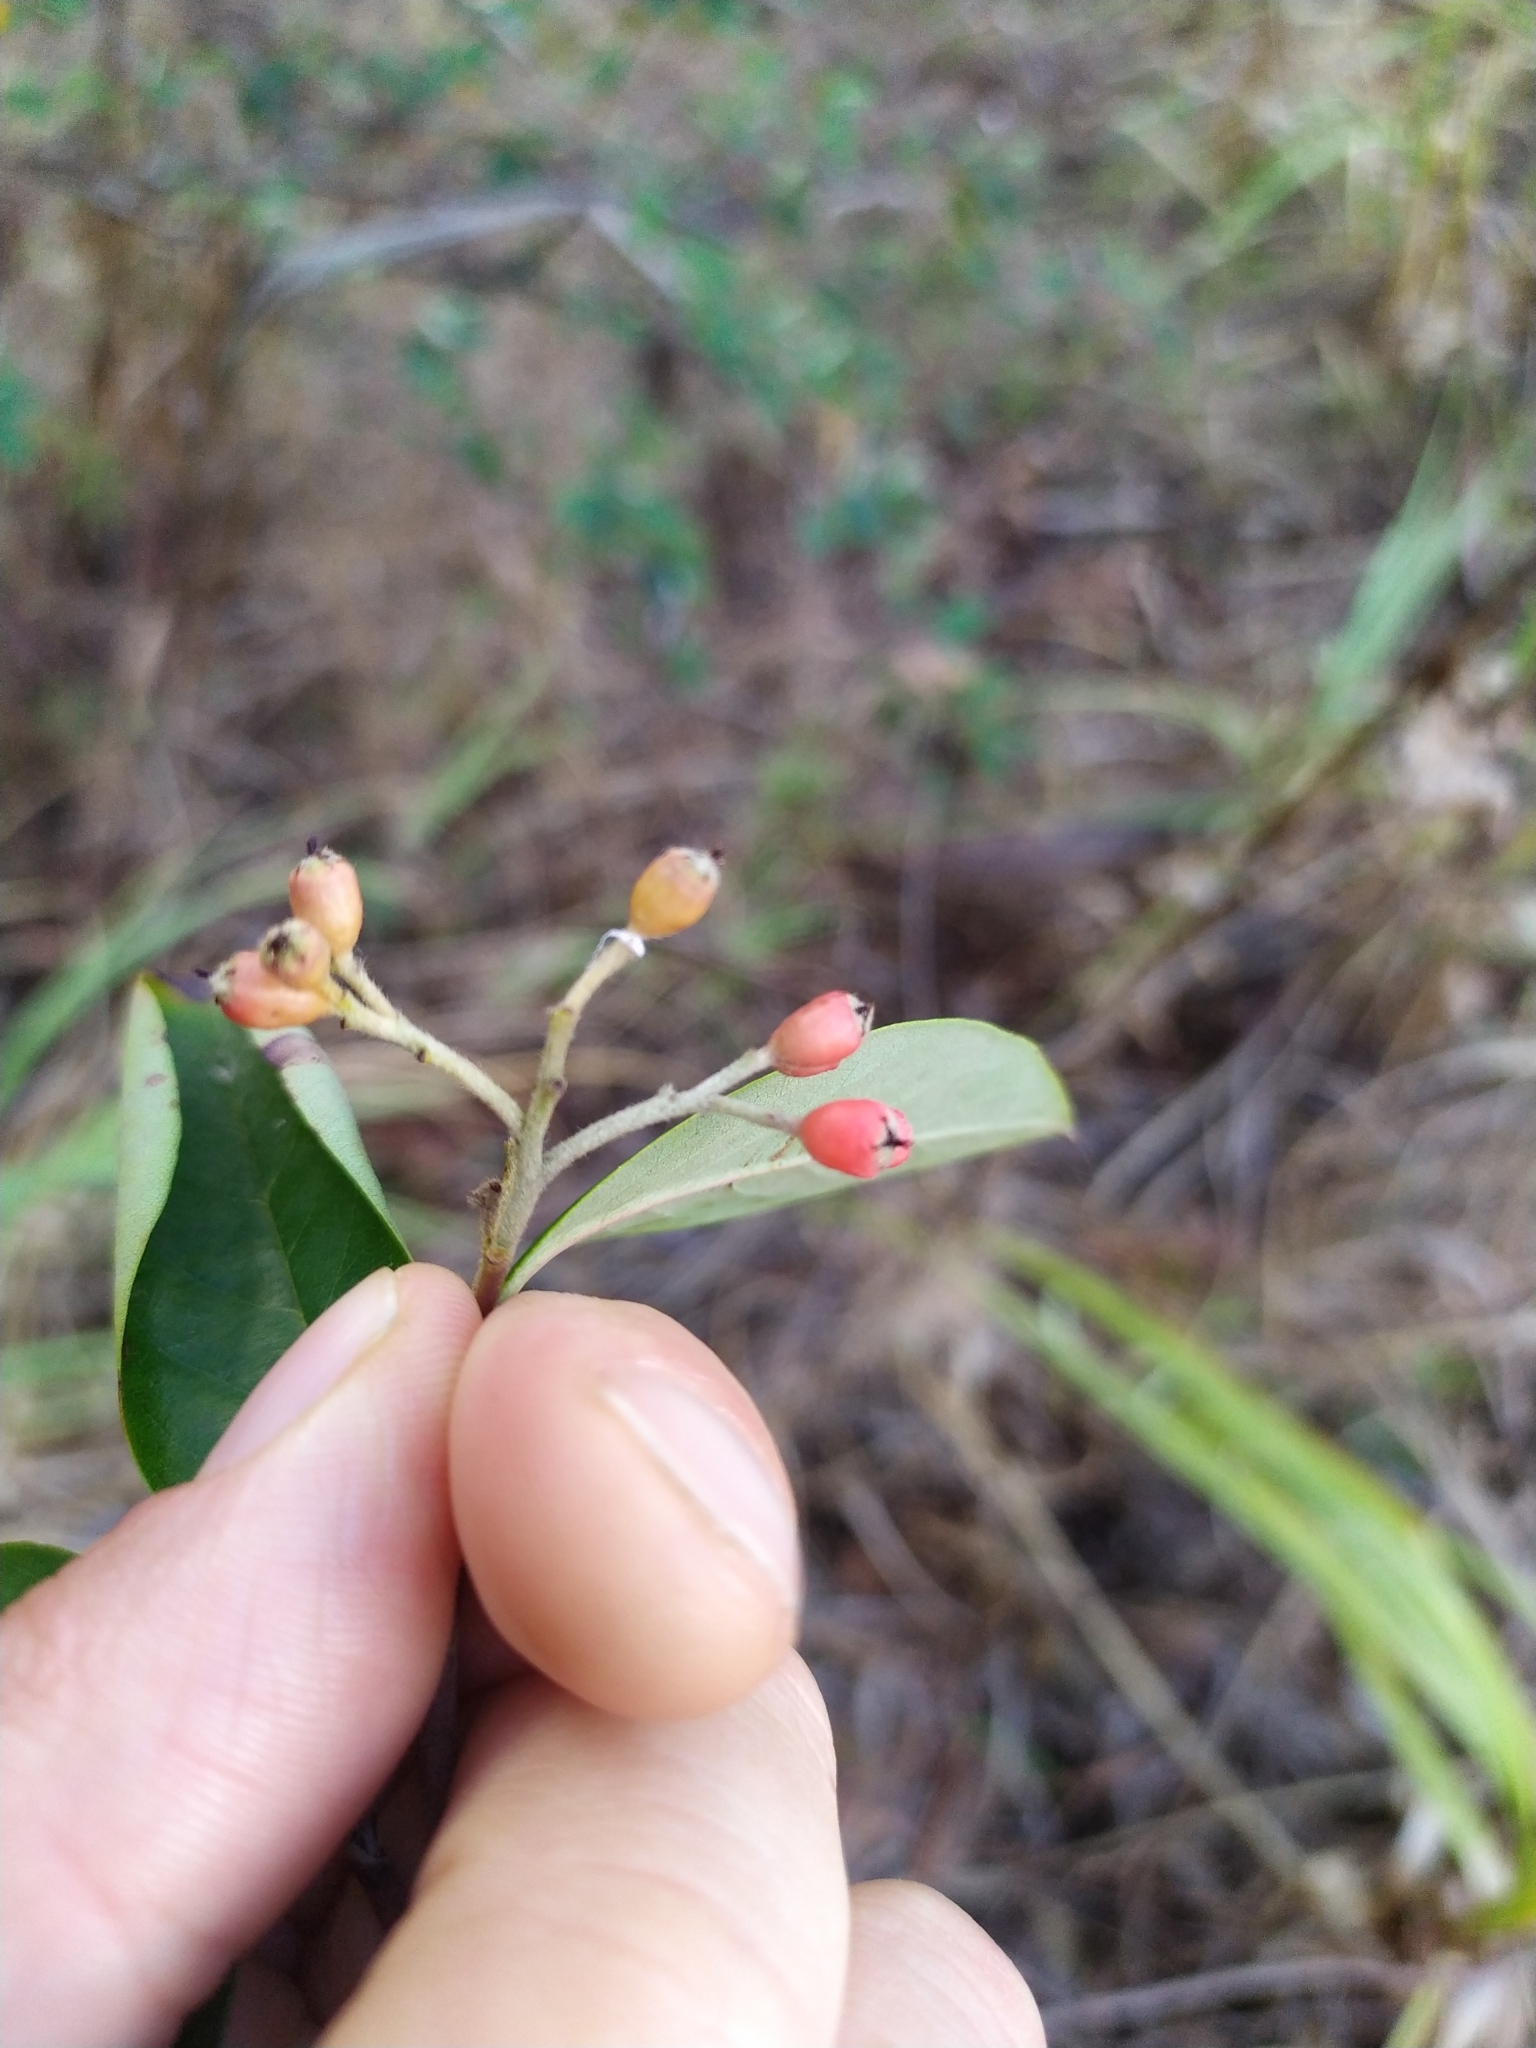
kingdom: Plantae
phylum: Tracheophyta
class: Magnoliopsida
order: Rosales
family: Rosaceae
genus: Cotoneaster
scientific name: Cotoneaster glaucophyllus
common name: Glaucous cotoneaster
